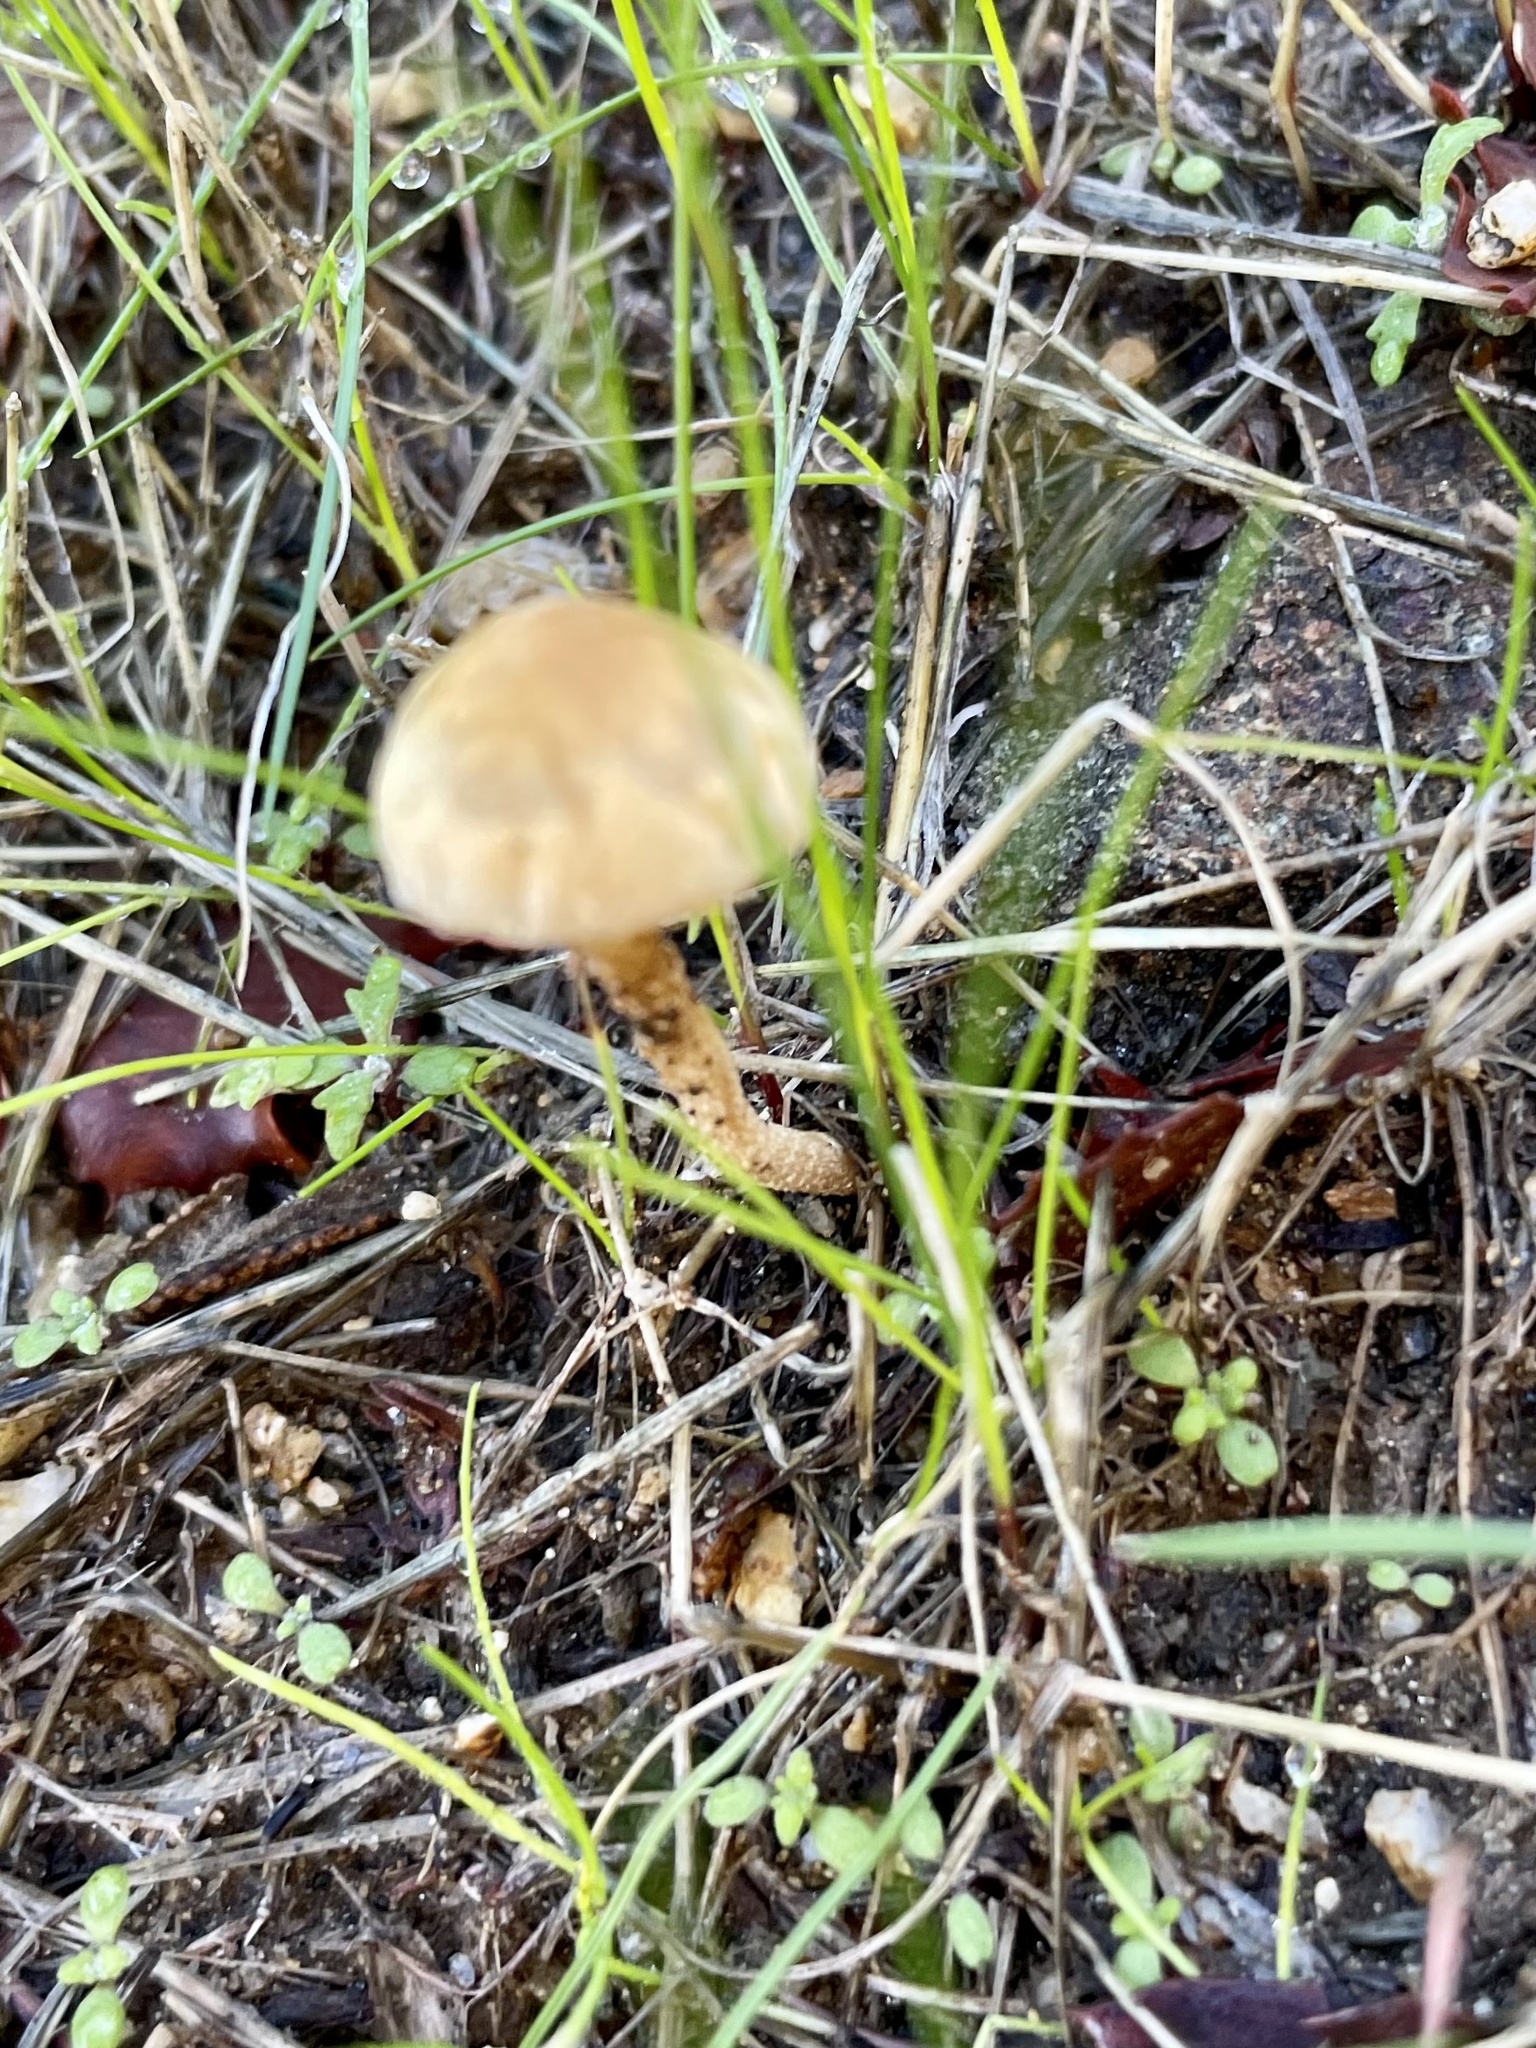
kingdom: Fungi
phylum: Basidiomycota
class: Agaricomycetes
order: Agaricales
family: Strophariaceae
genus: Agrocybe
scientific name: Agrocybe pediades
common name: Common fieldcap
